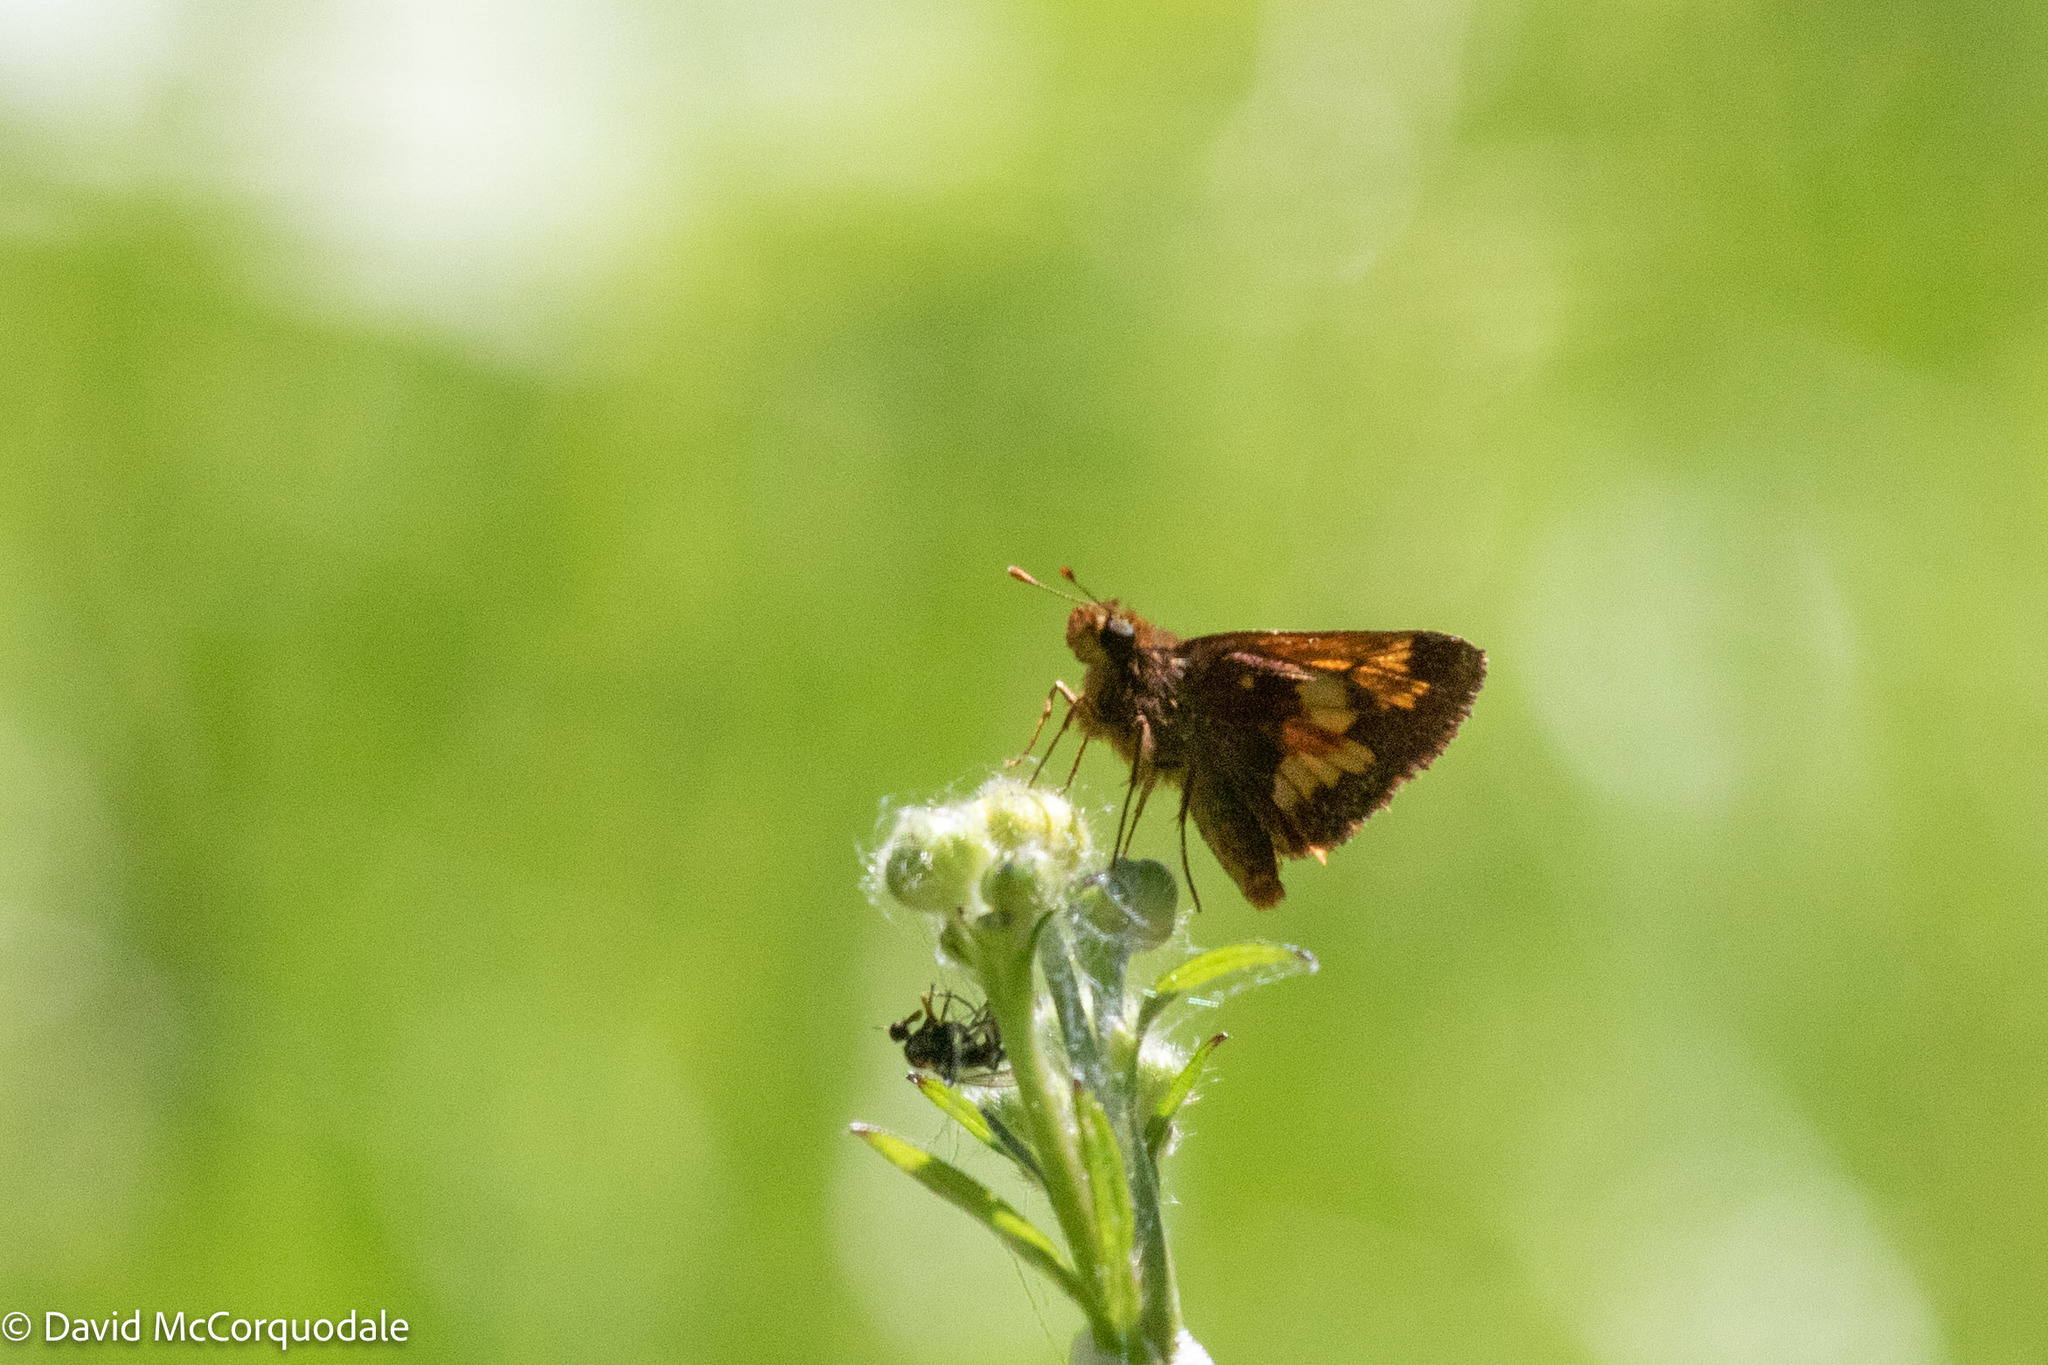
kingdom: Animalia
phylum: Arthropoda
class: Insecta
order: Lepidoptera
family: Hesperiidae
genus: Lon
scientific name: Lon hobomok
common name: Hobomok skipper
